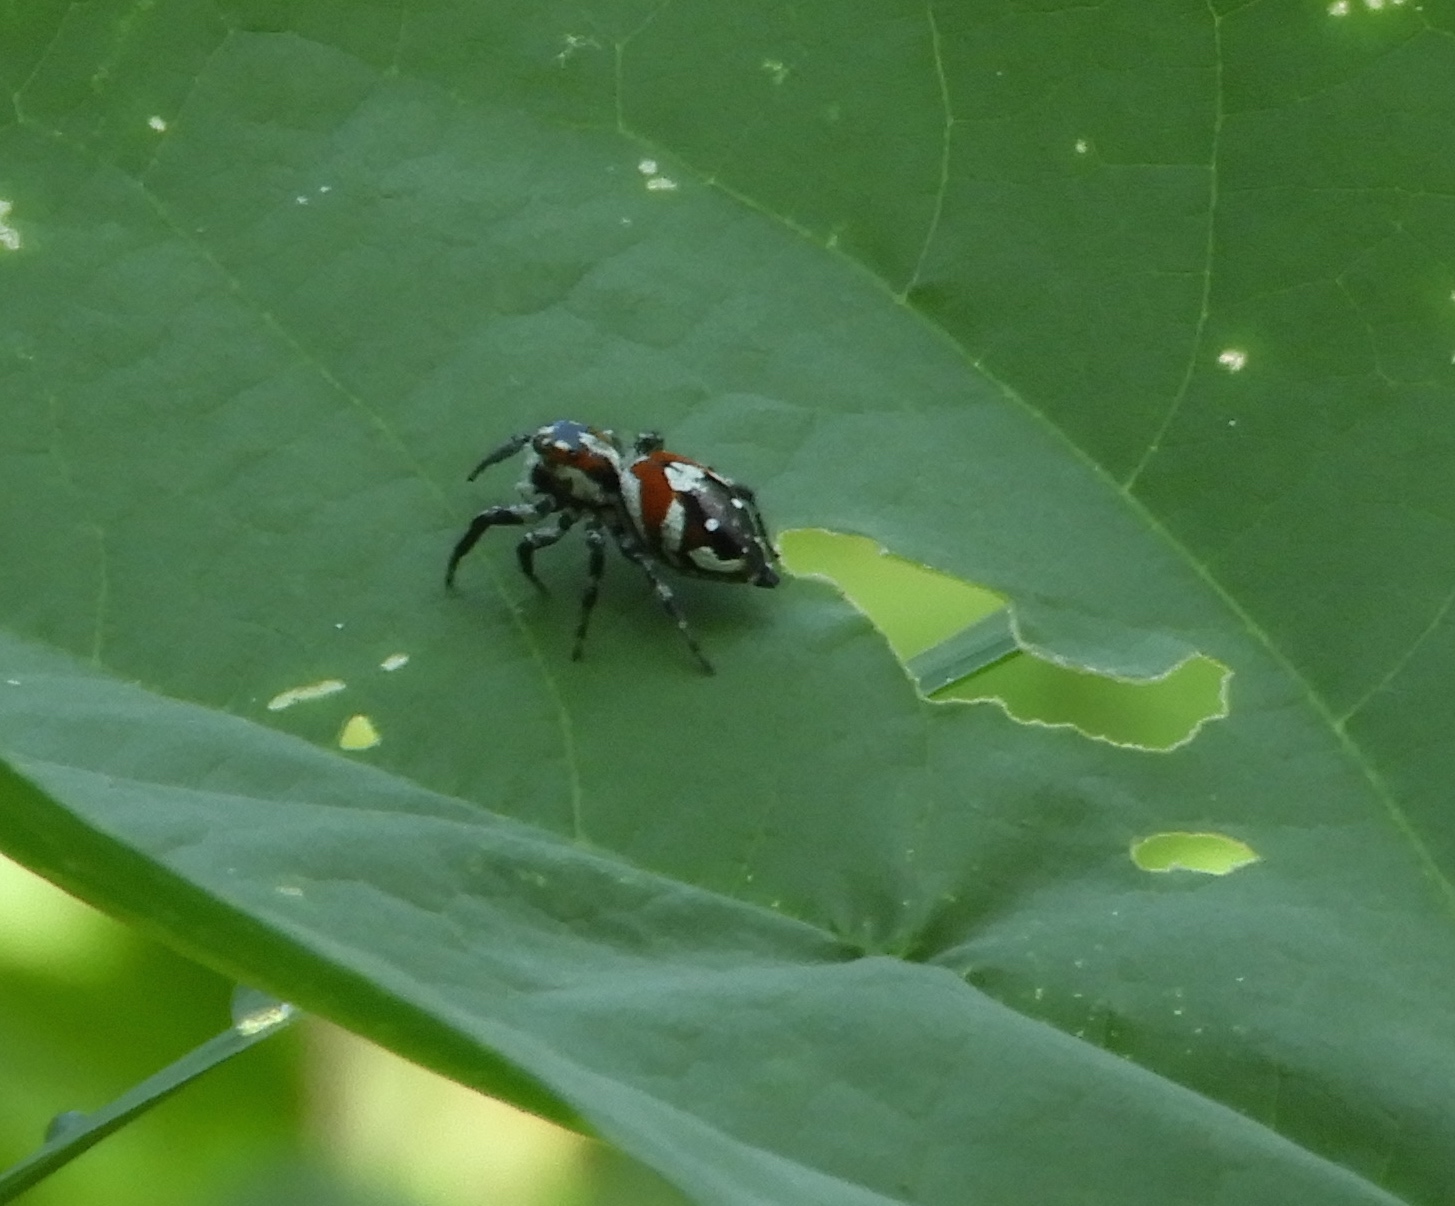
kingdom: Animalia
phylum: Arthropoda
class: Arachnida
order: Araneae
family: Salticidae
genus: Nycerella
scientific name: Nycerella delecta
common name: Jumping spiders
